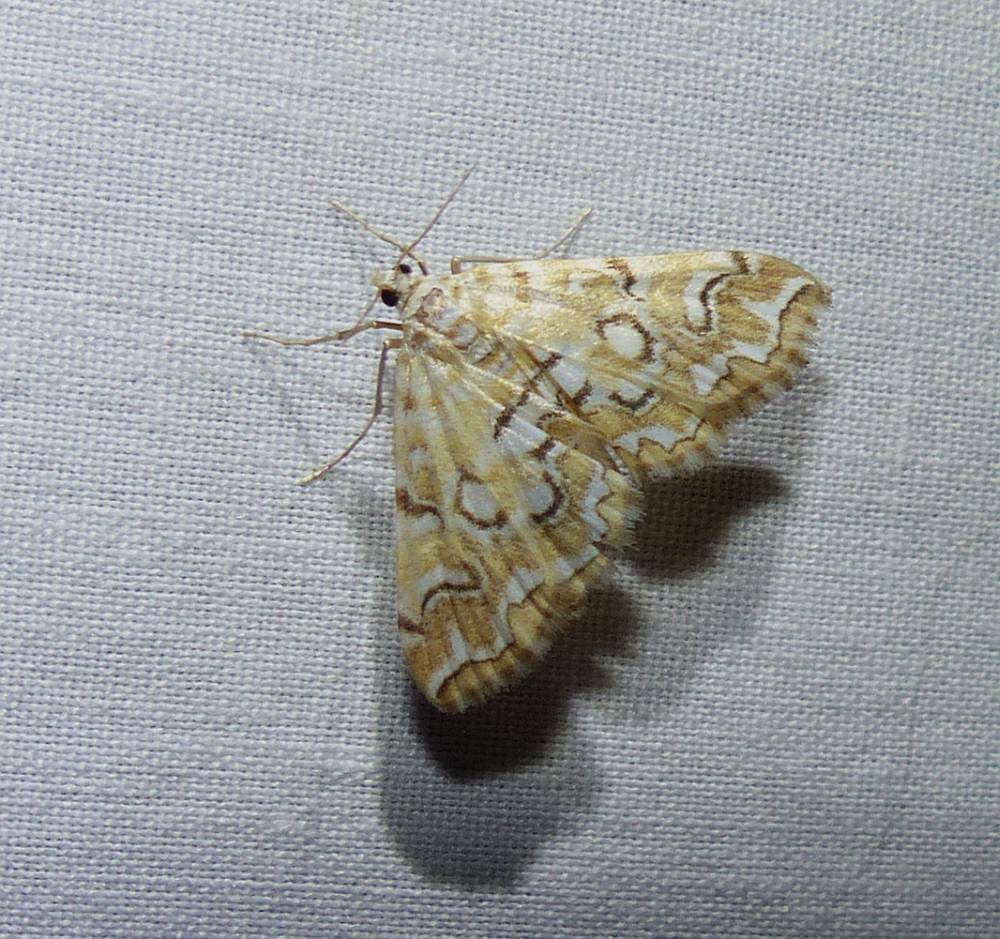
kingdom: Animalia
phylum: Arthropoda
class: Insecta
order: Lepidoptera
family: Crambidae
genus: Elophila
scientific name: Elophila icciusalis
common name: Pondside pyralid moth
